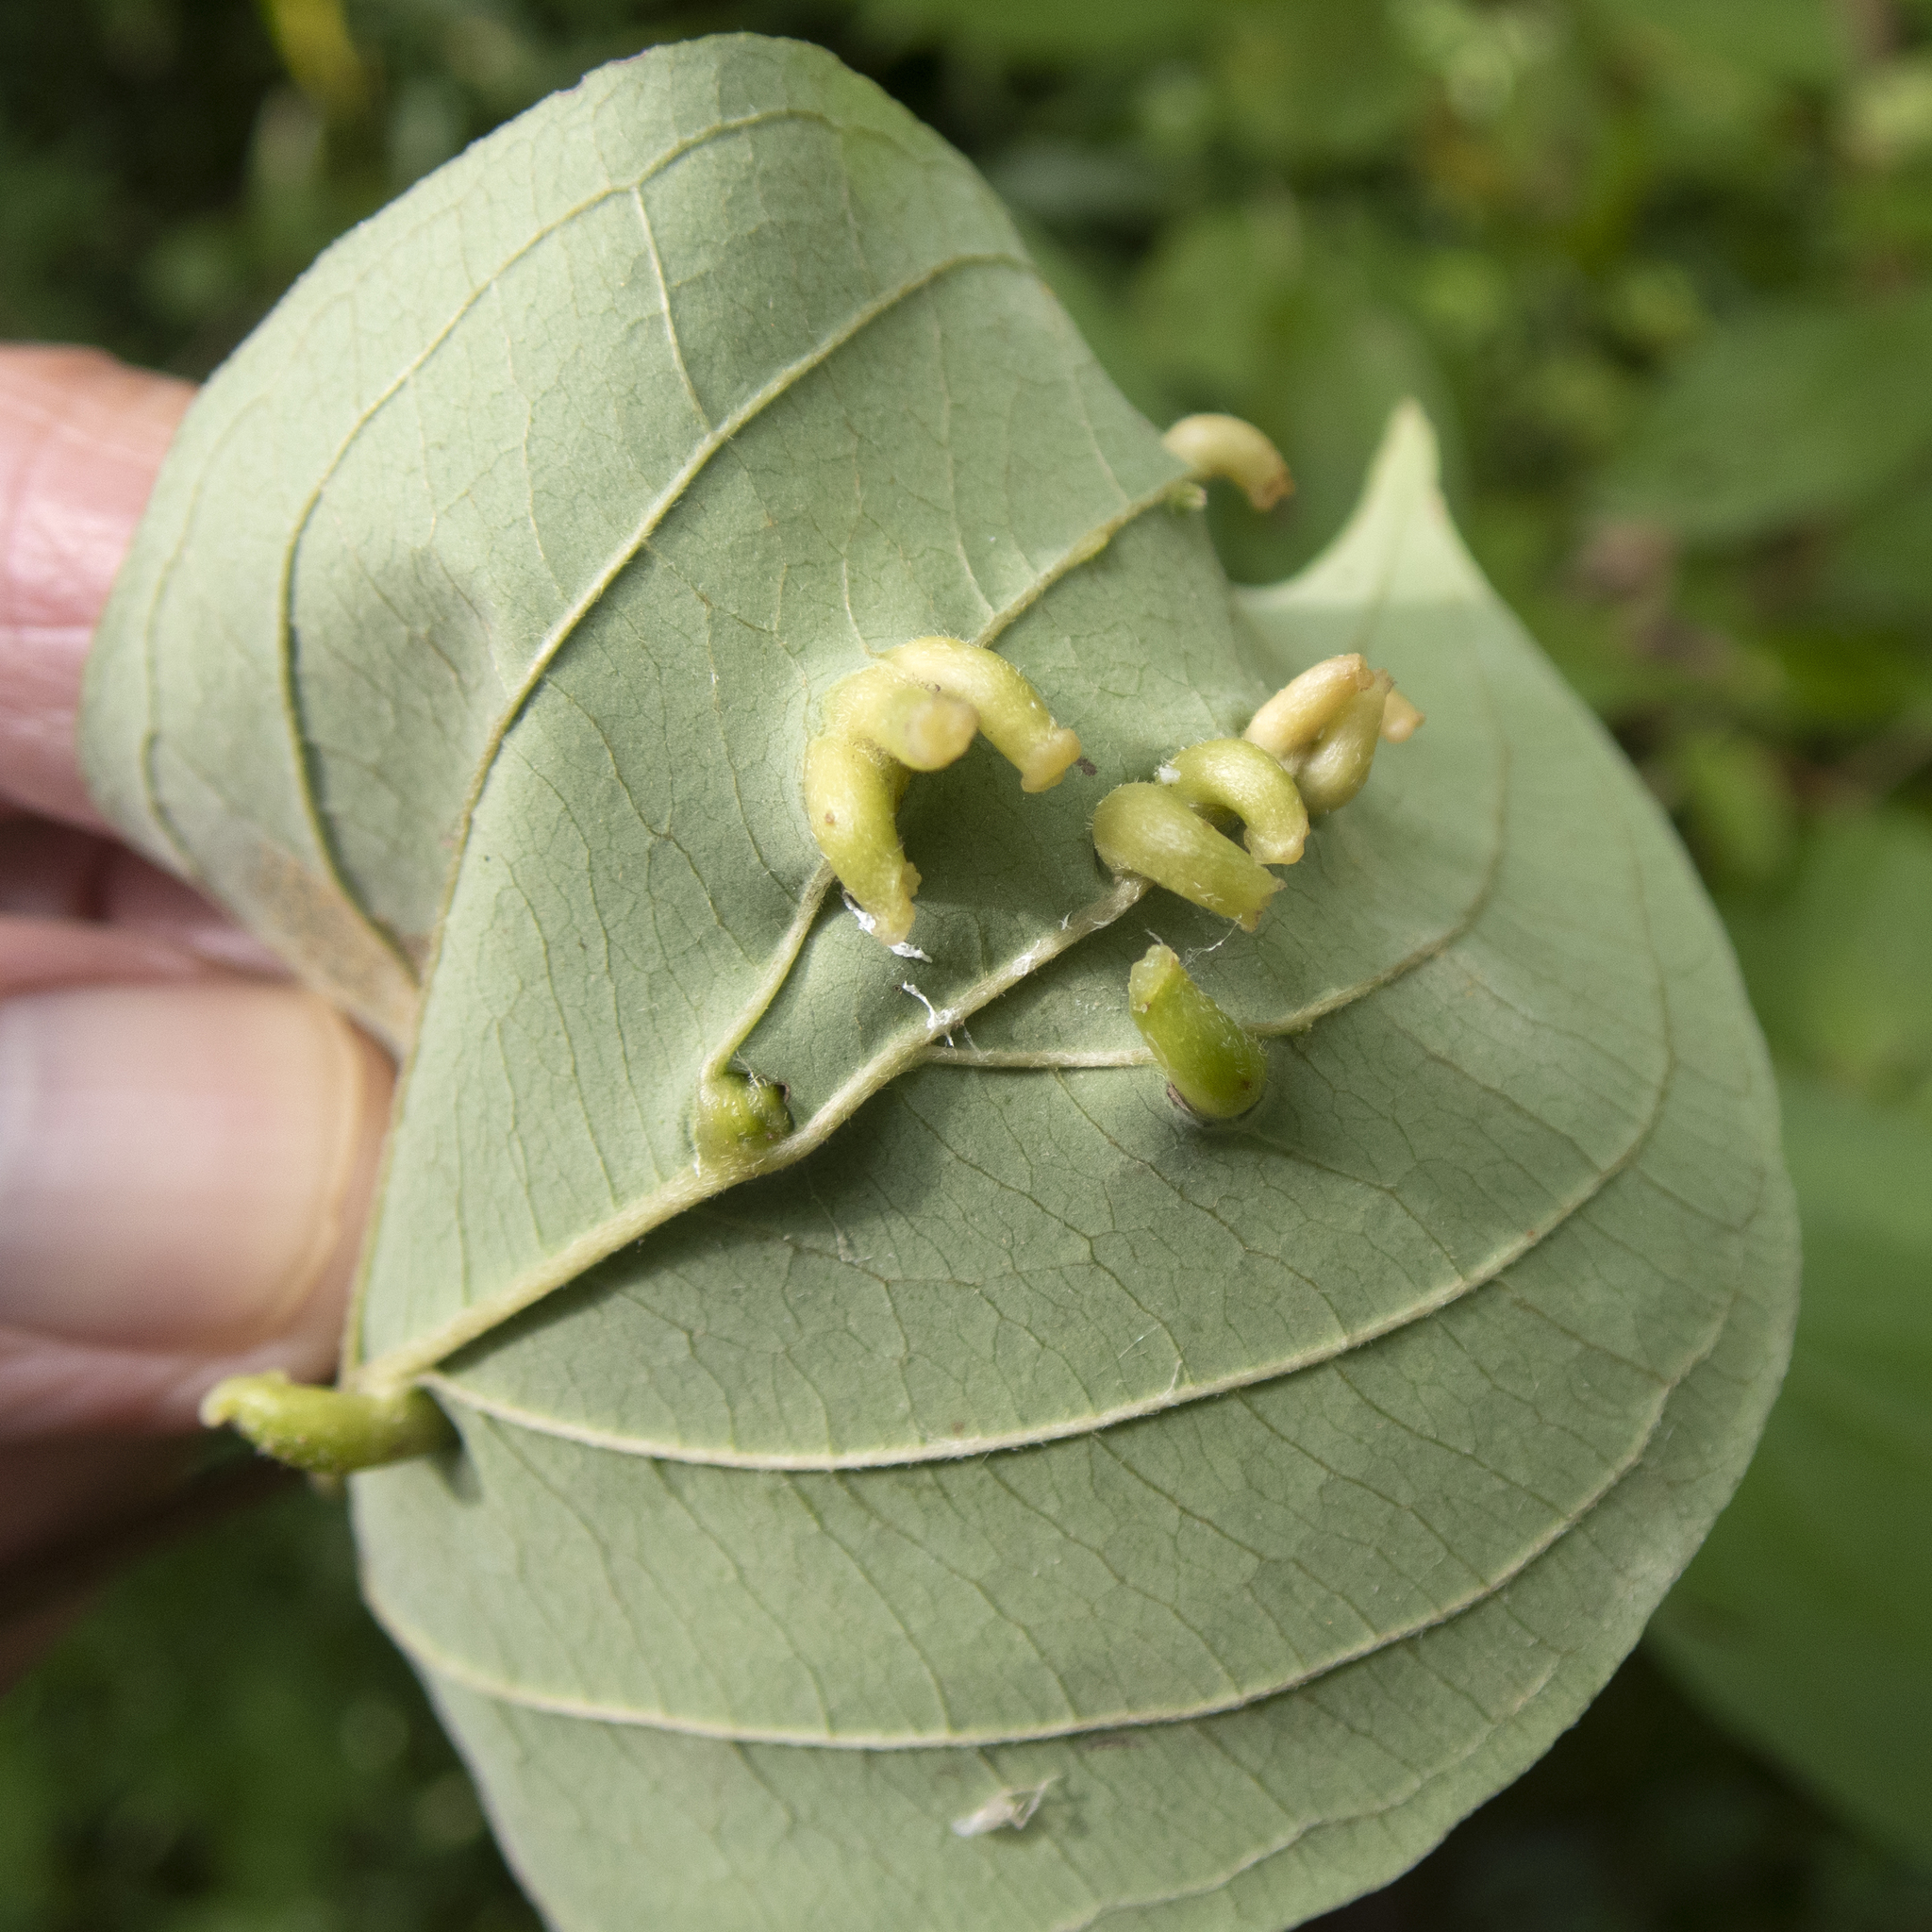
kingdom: Animalia
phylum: Arthropoda
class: Insecta
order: Diptera
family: Cecidomyiidae
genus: Dasineura
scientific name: Dasineura tuba
